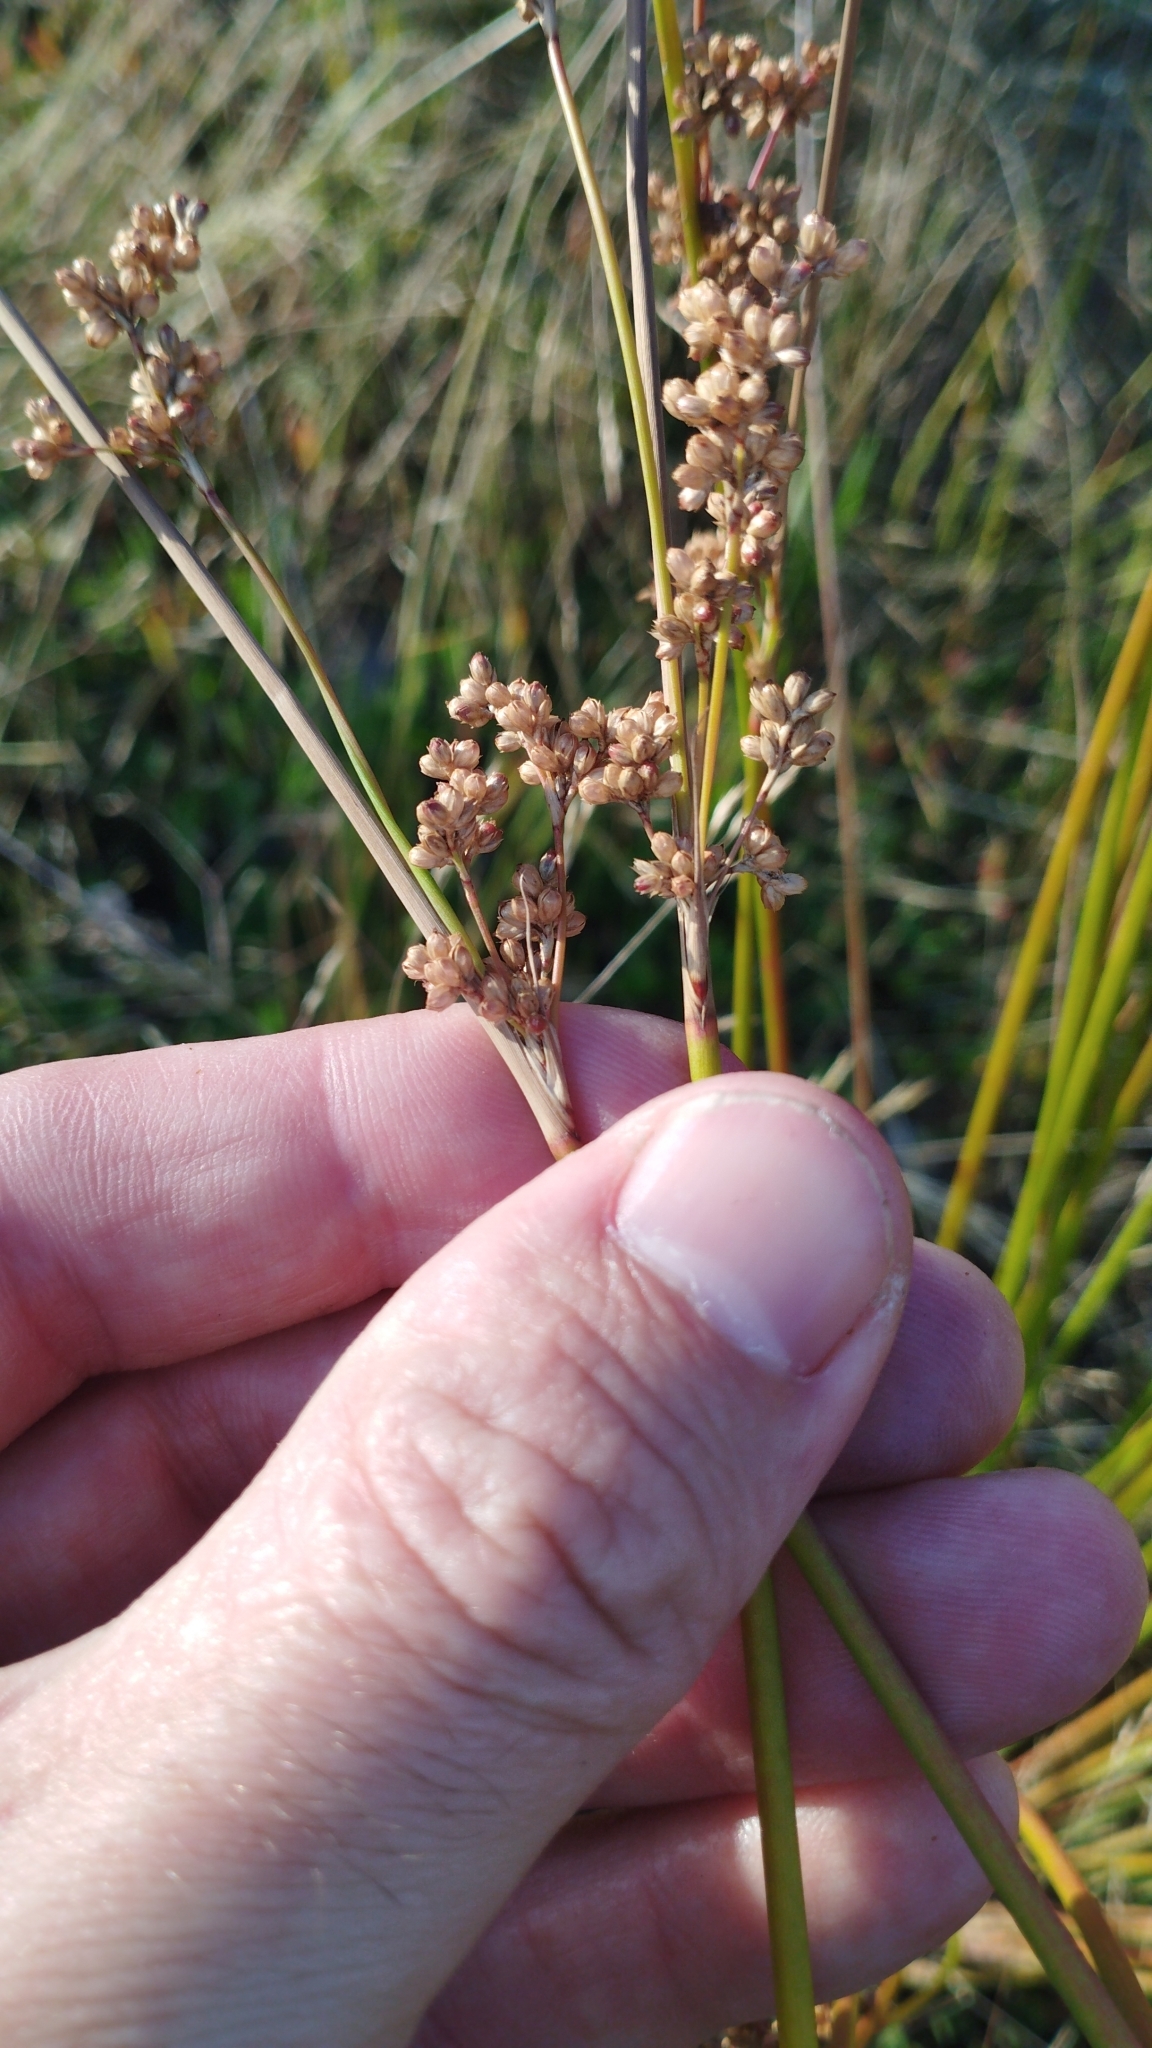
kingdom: Plantae
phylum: Tracheophyta
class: Liliopsida
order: Poales
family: Juncaceae
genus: Juncus
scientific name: Juncus australis
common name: Austral rush
